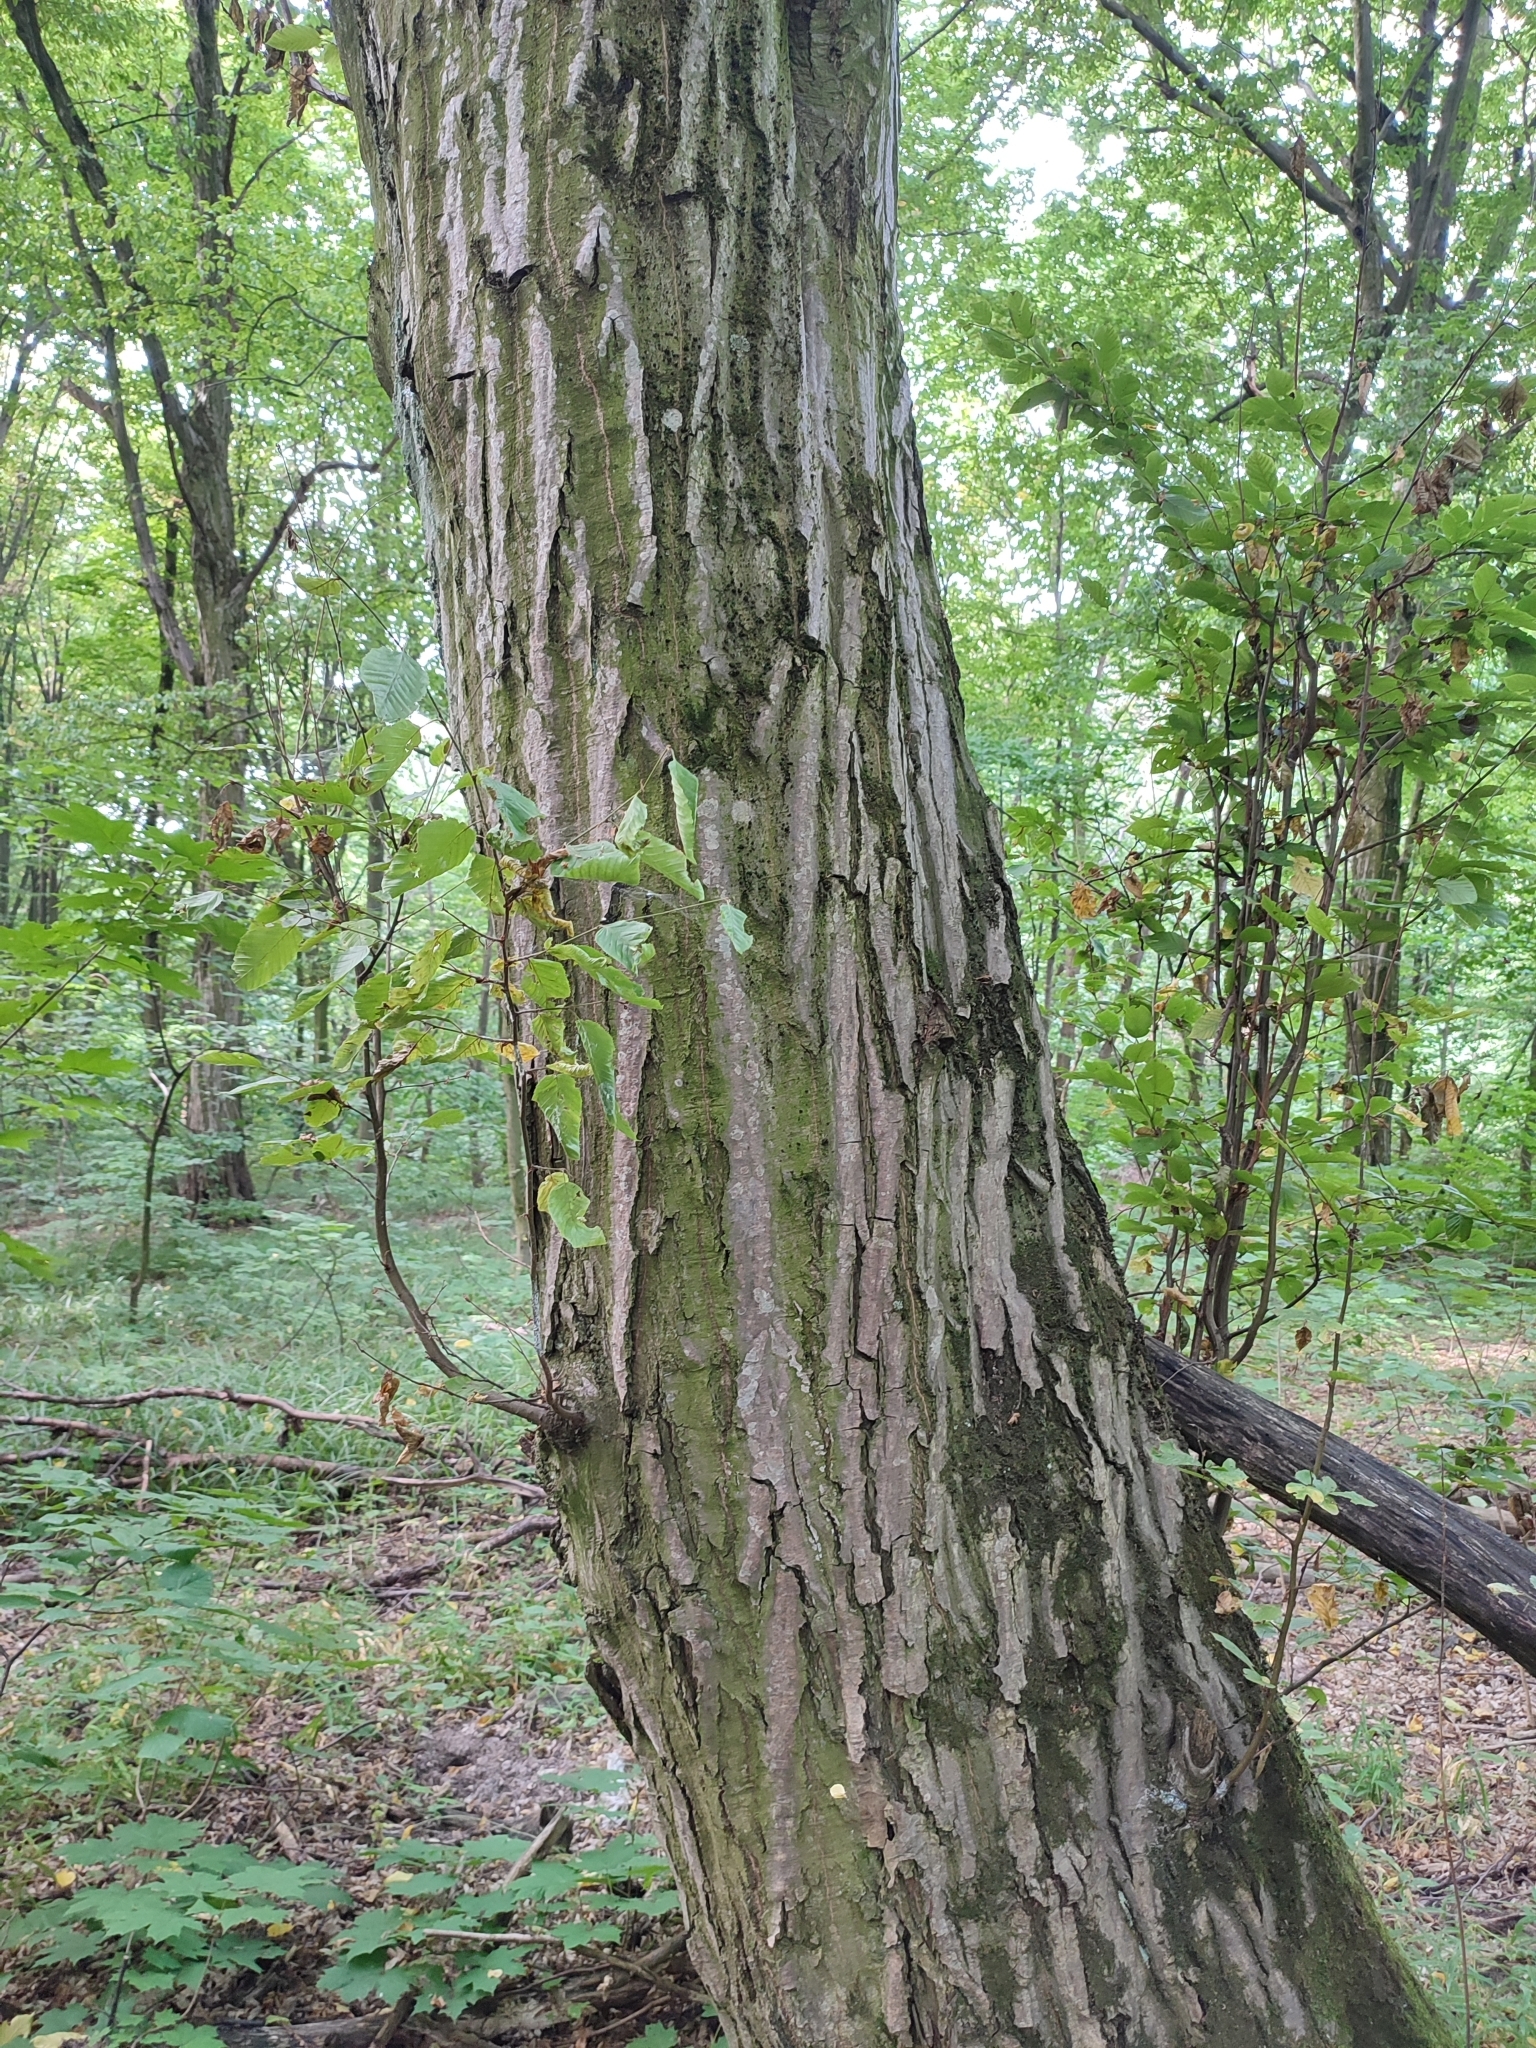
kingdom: Plantae
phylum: Tracheophyta
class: Magnoliopsida
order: Fagales
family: Betulaceae
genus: Carpinus
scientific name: Carpinus betulus
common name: Hornbeam
